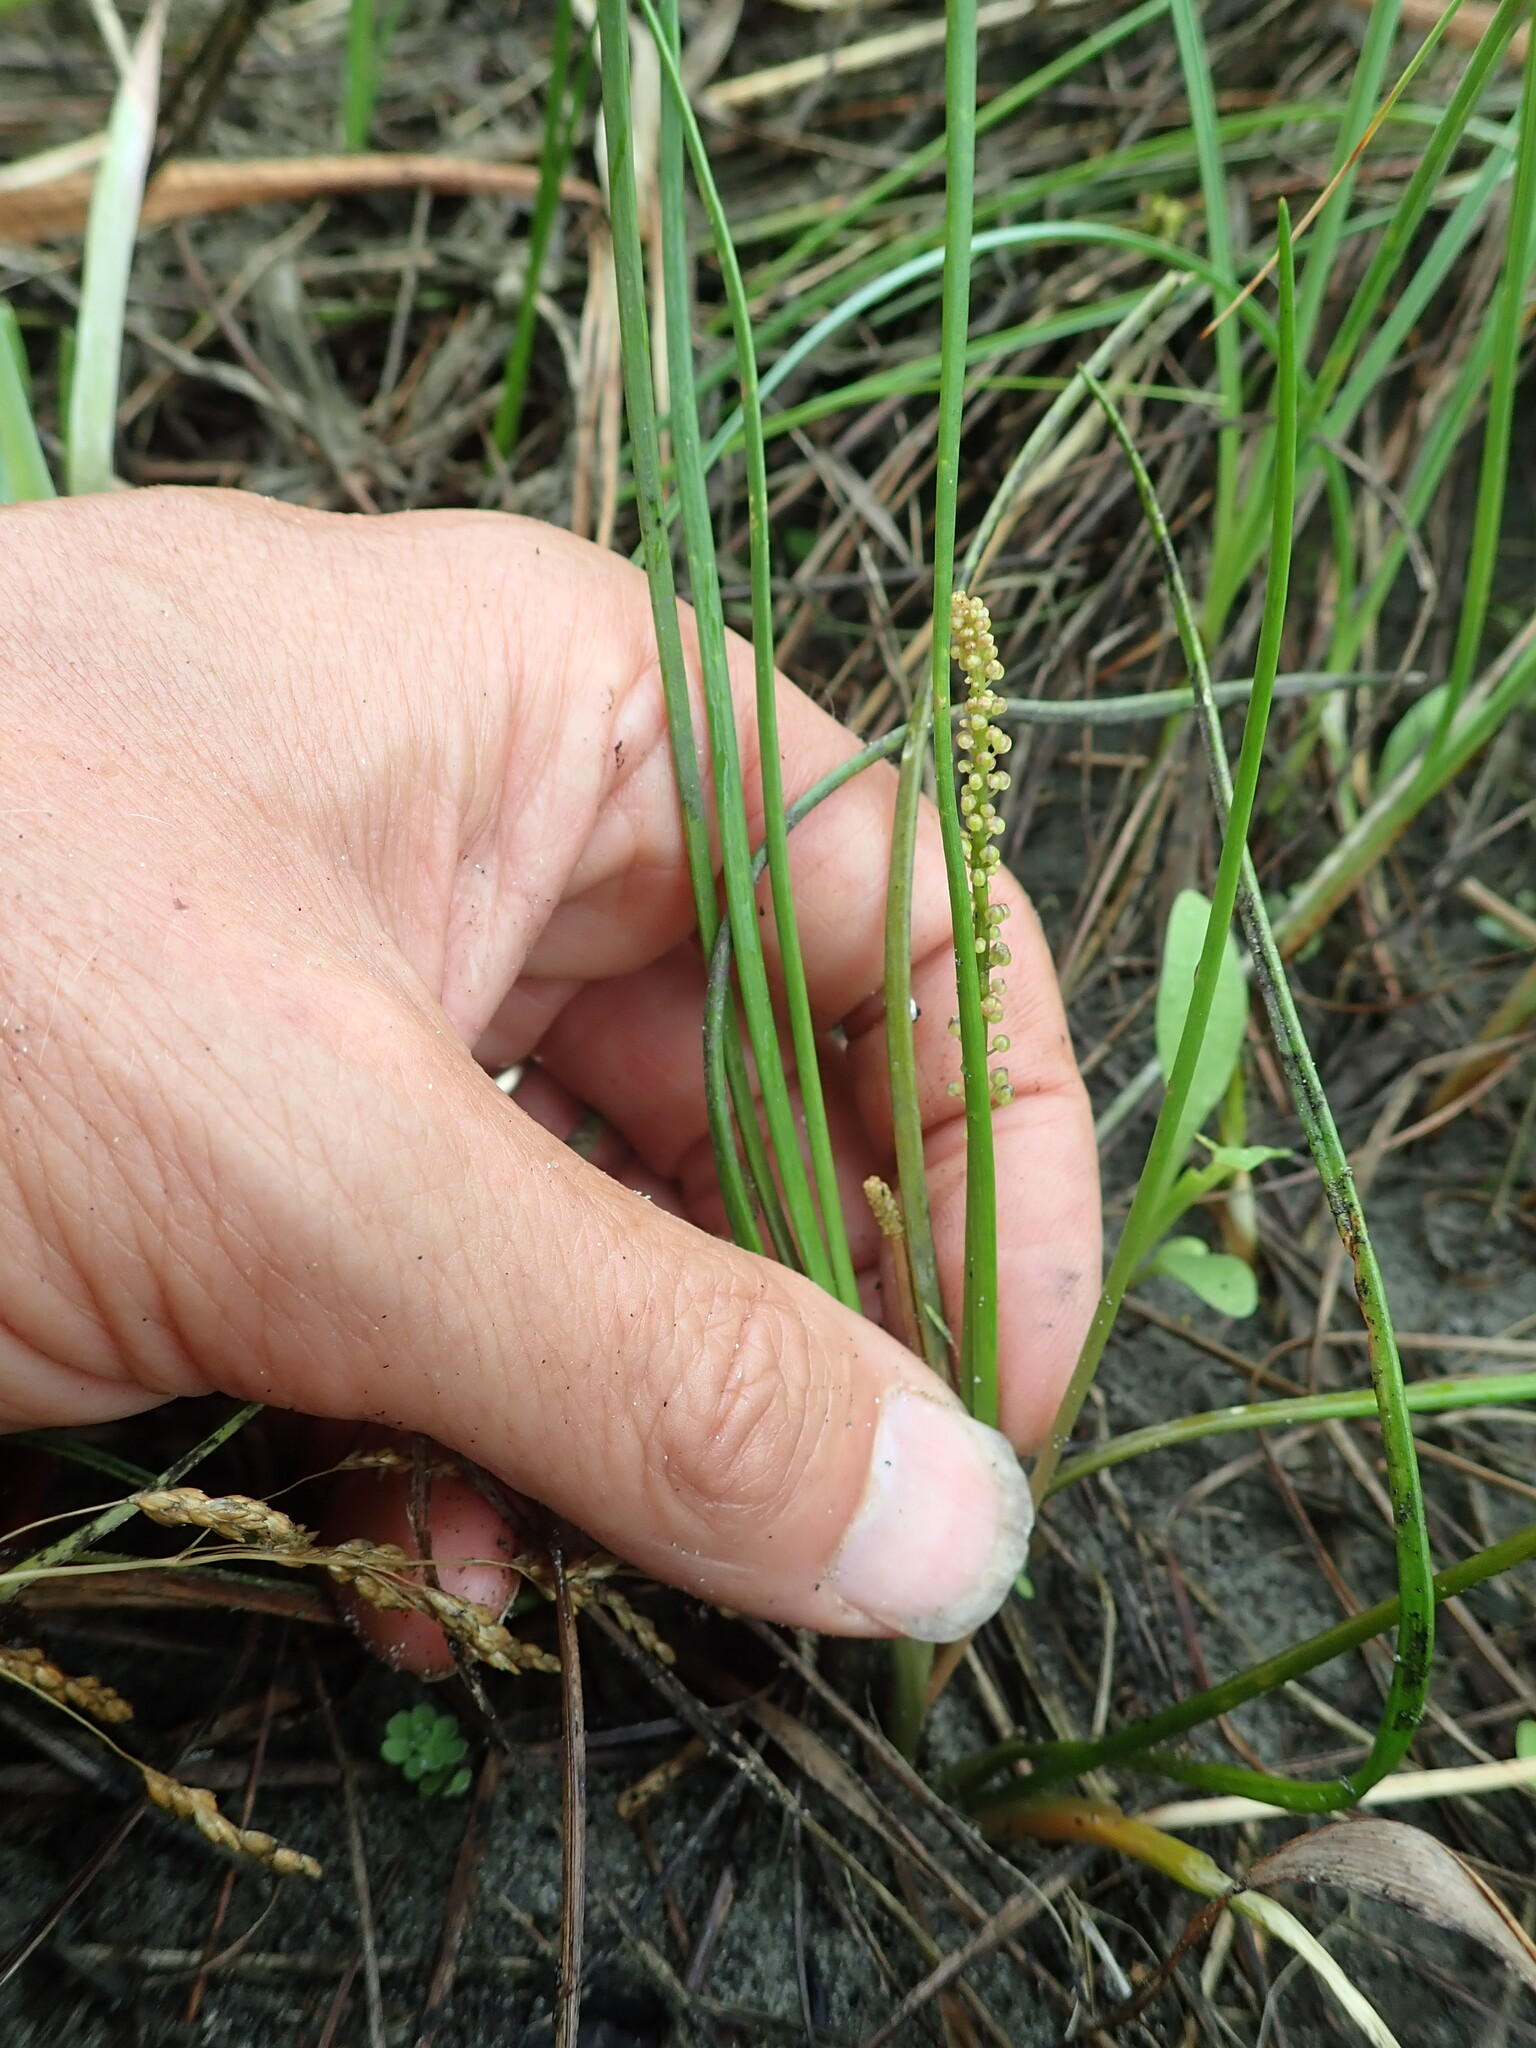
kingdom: Plantae
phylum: Tracheophyta
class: Liliopsida
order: Alismatales
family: Juncaginaceae
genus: Triglochin
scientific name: Triglochin striata
